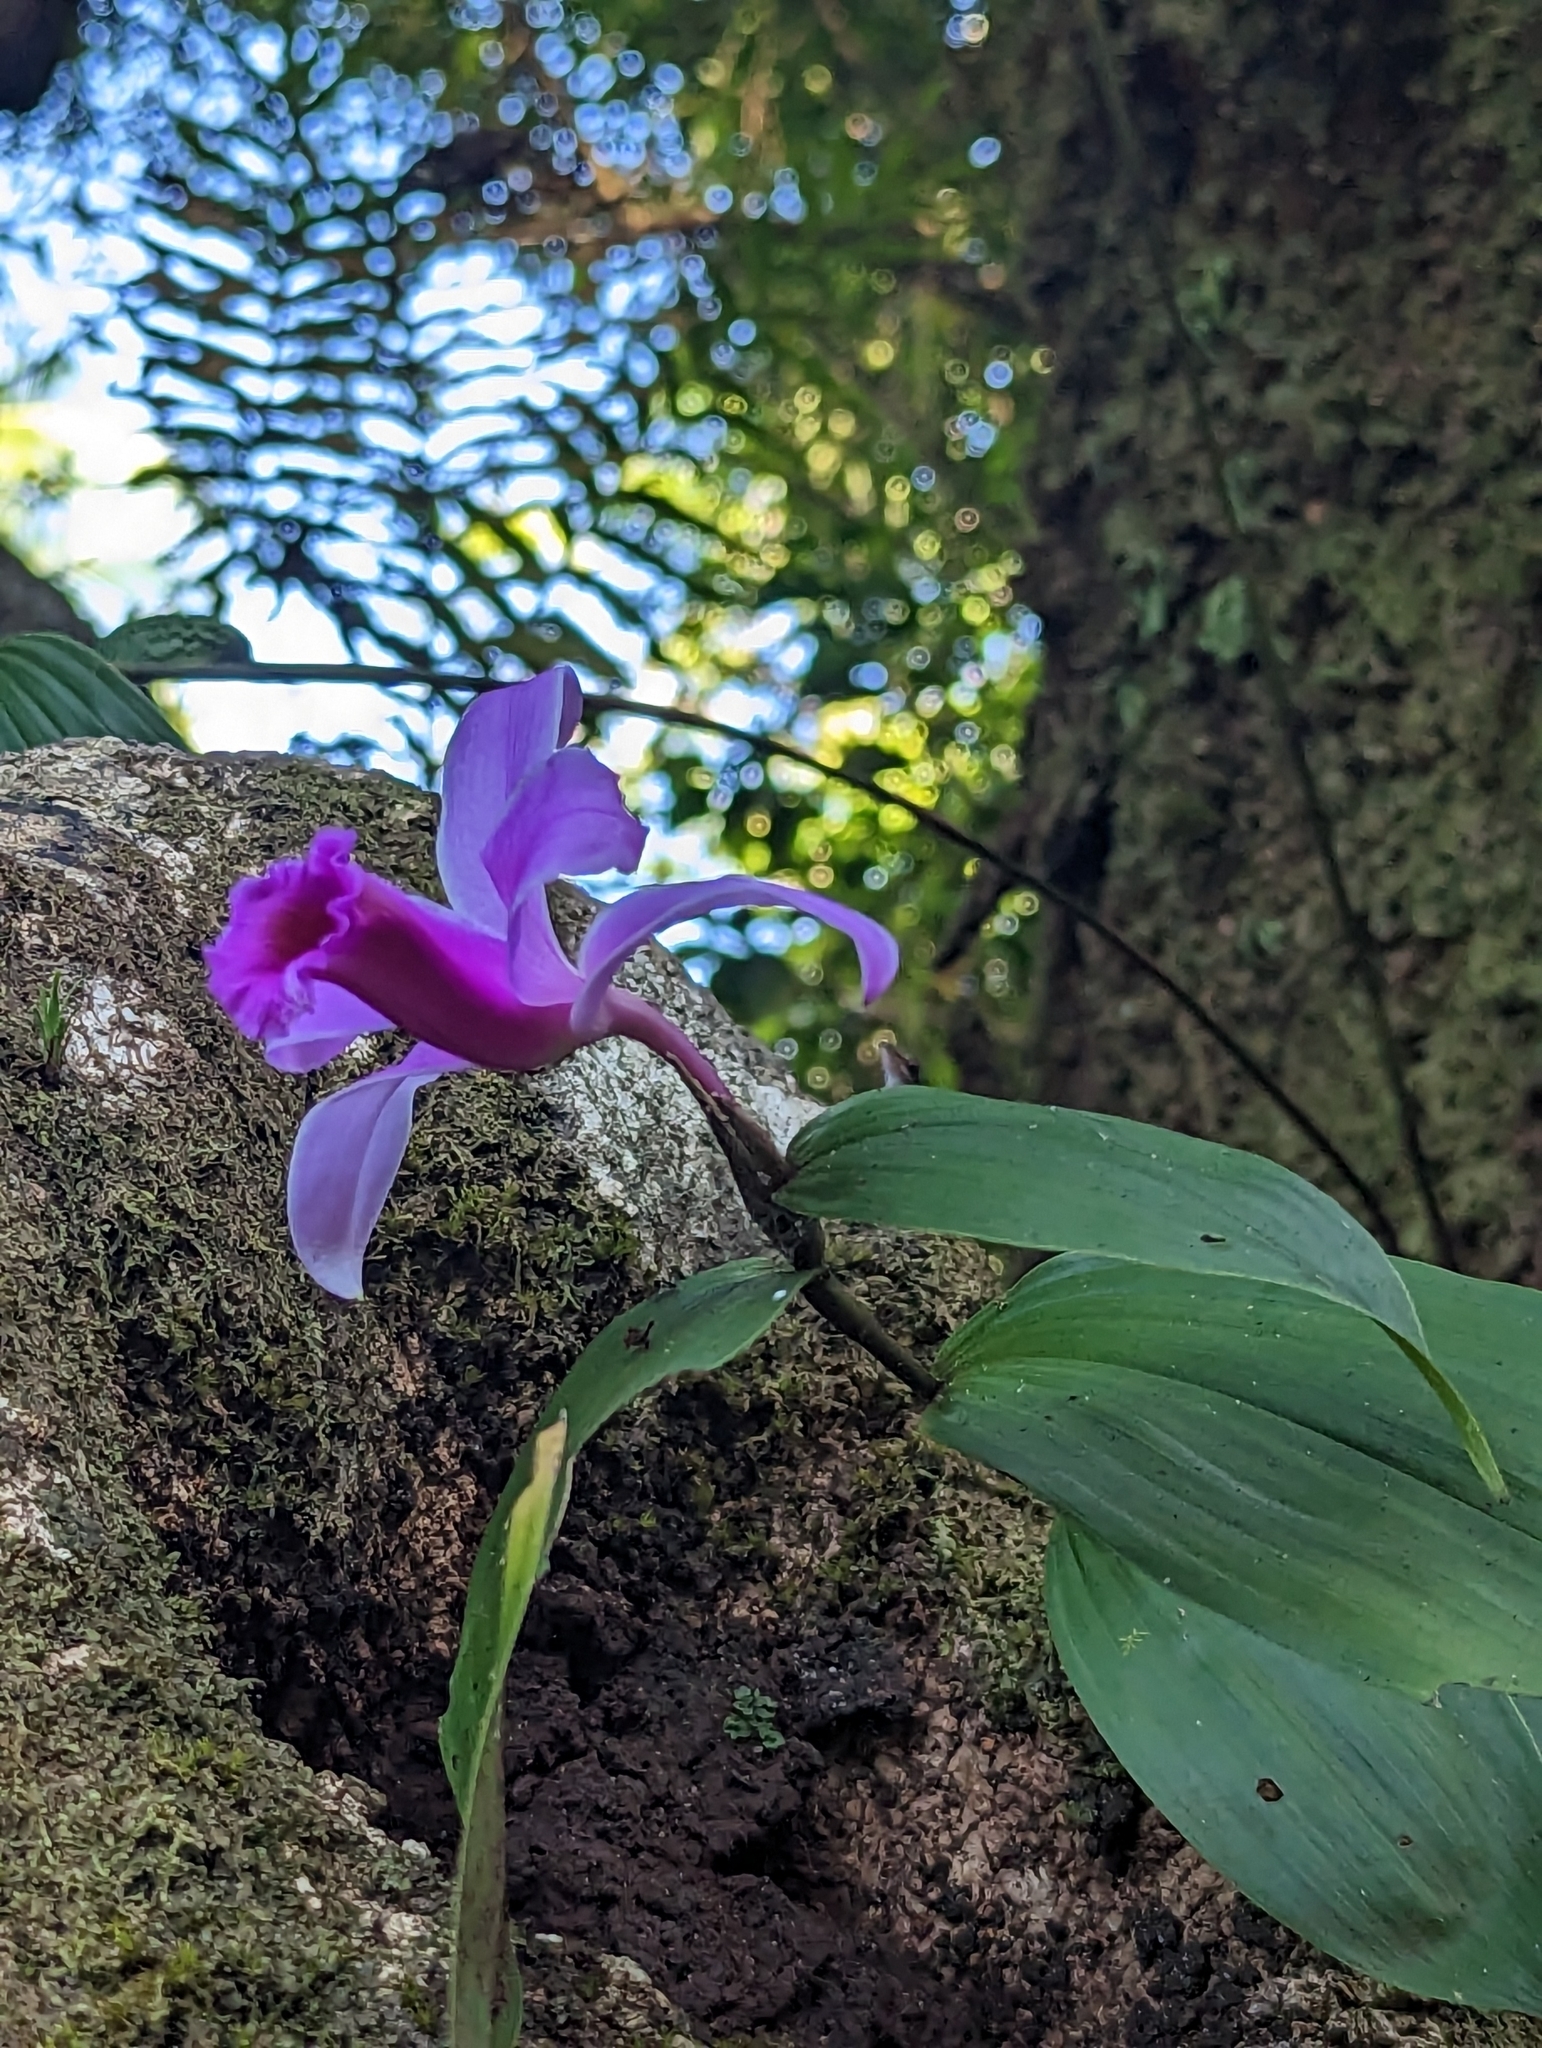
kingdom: Plantae
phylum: Tracheophyta
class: Liliopsida
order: Asparagales
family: Orchidaceae
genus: Sobralia
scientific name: Sobralia decora
